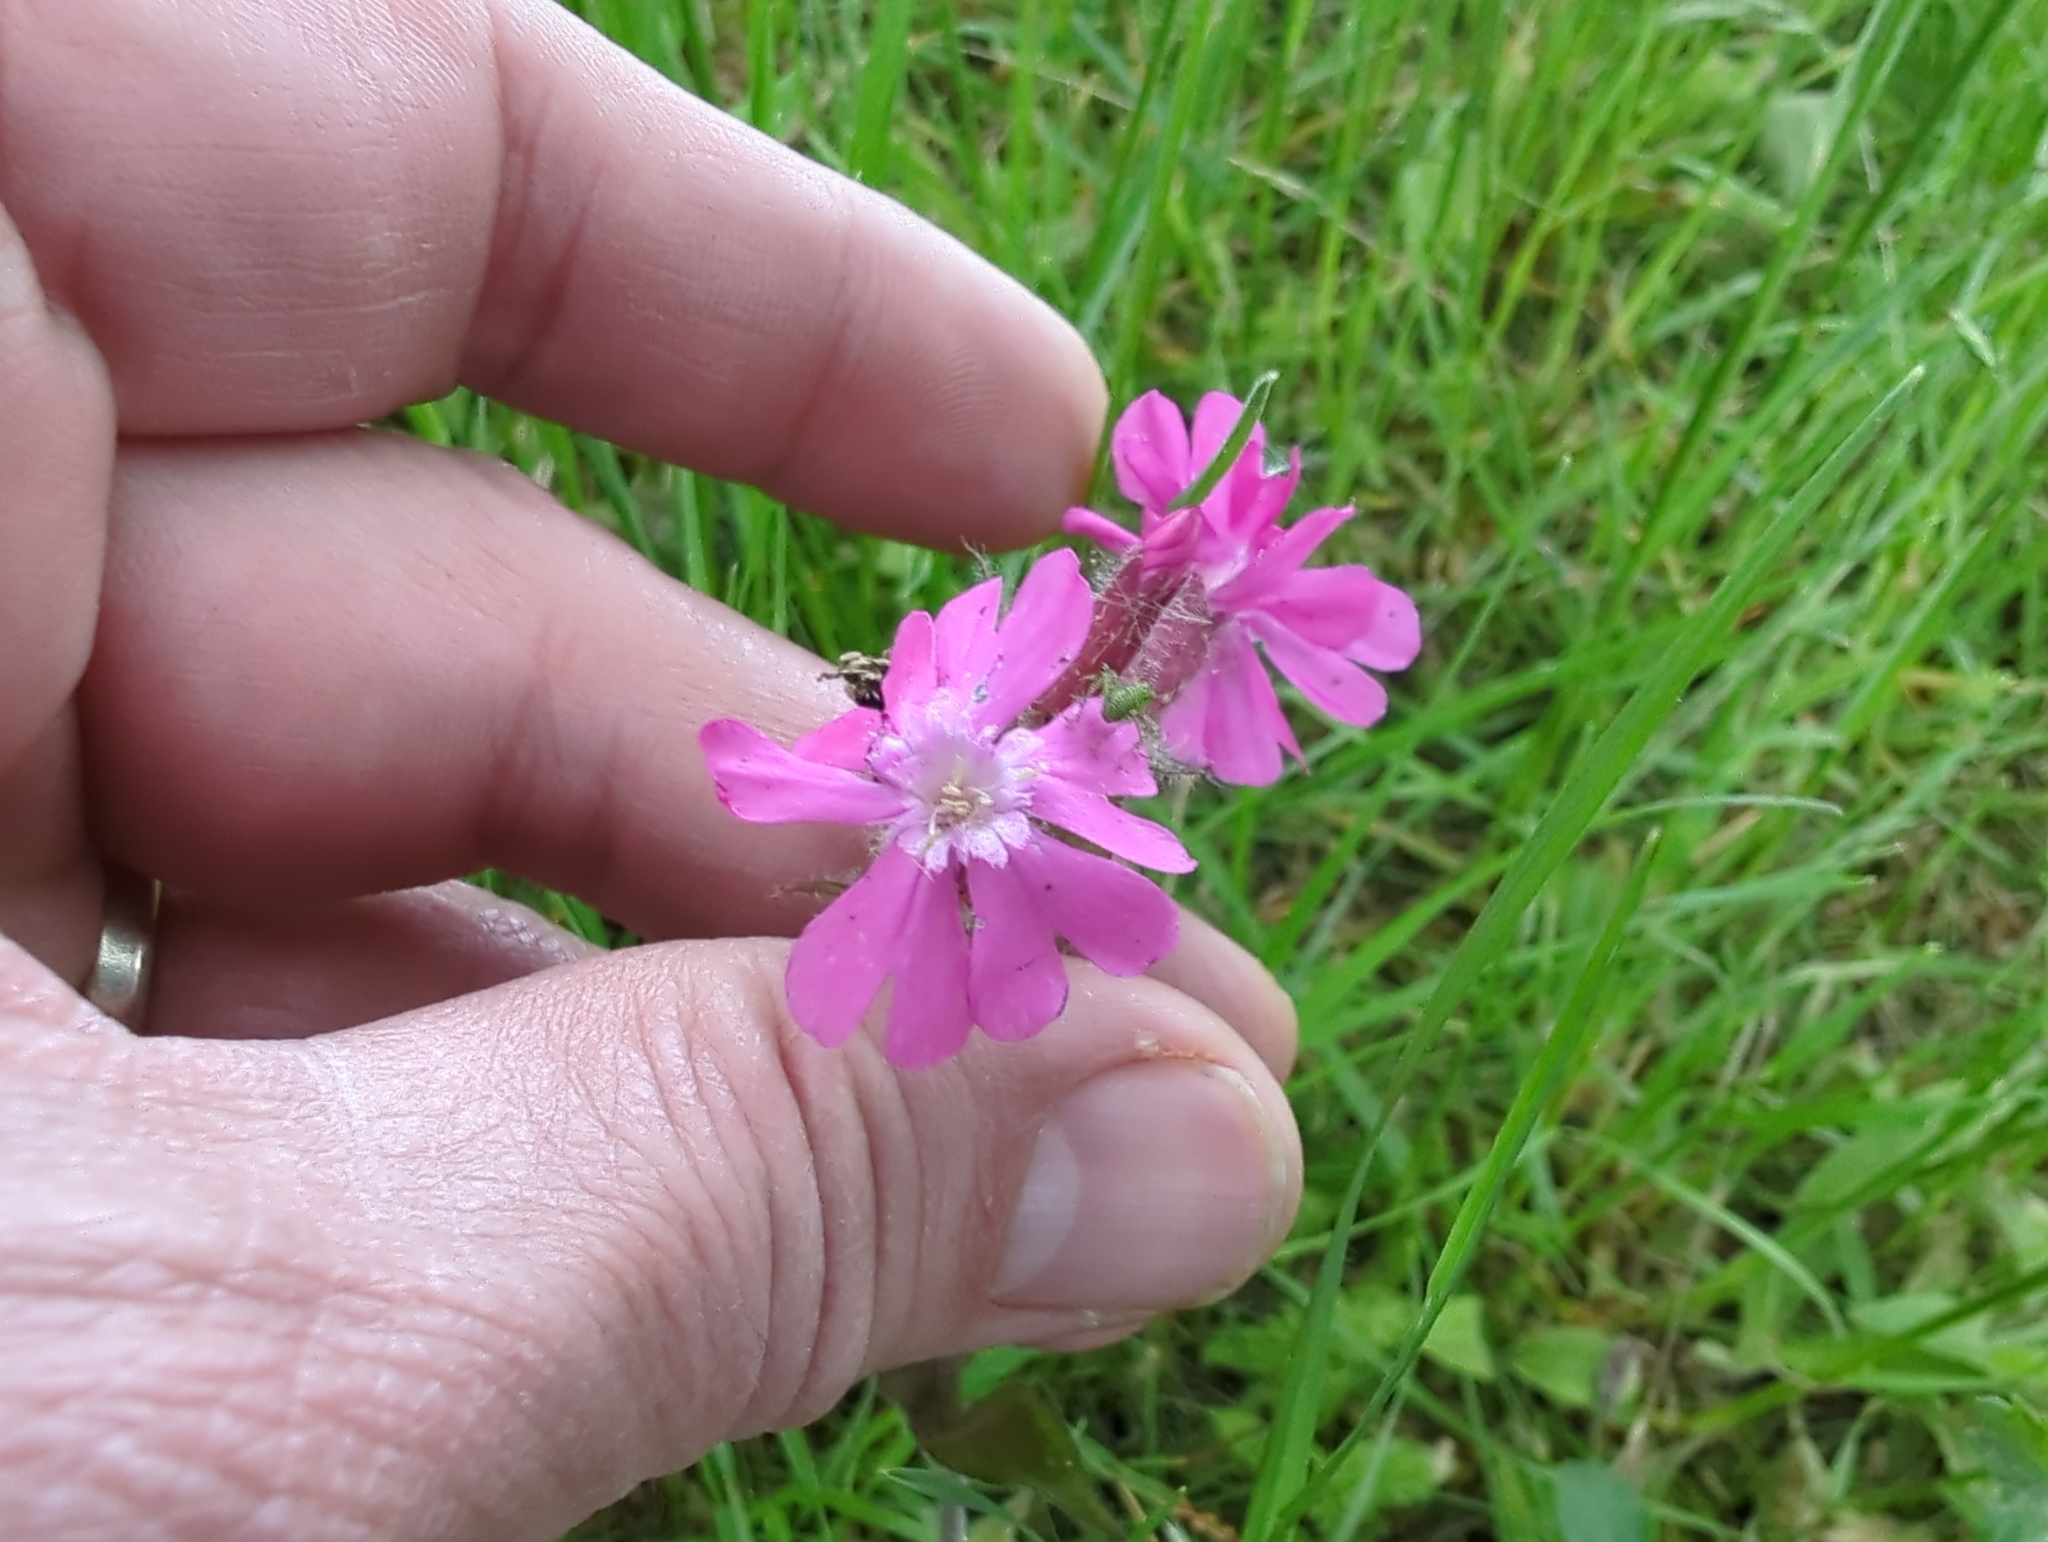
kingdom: Plantae
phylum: Tracheophyta
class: Magnoliopsida
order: Caryophyllales
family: Caryophyllaceae
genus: Silene
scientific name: Silene dioica
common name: Red campion
